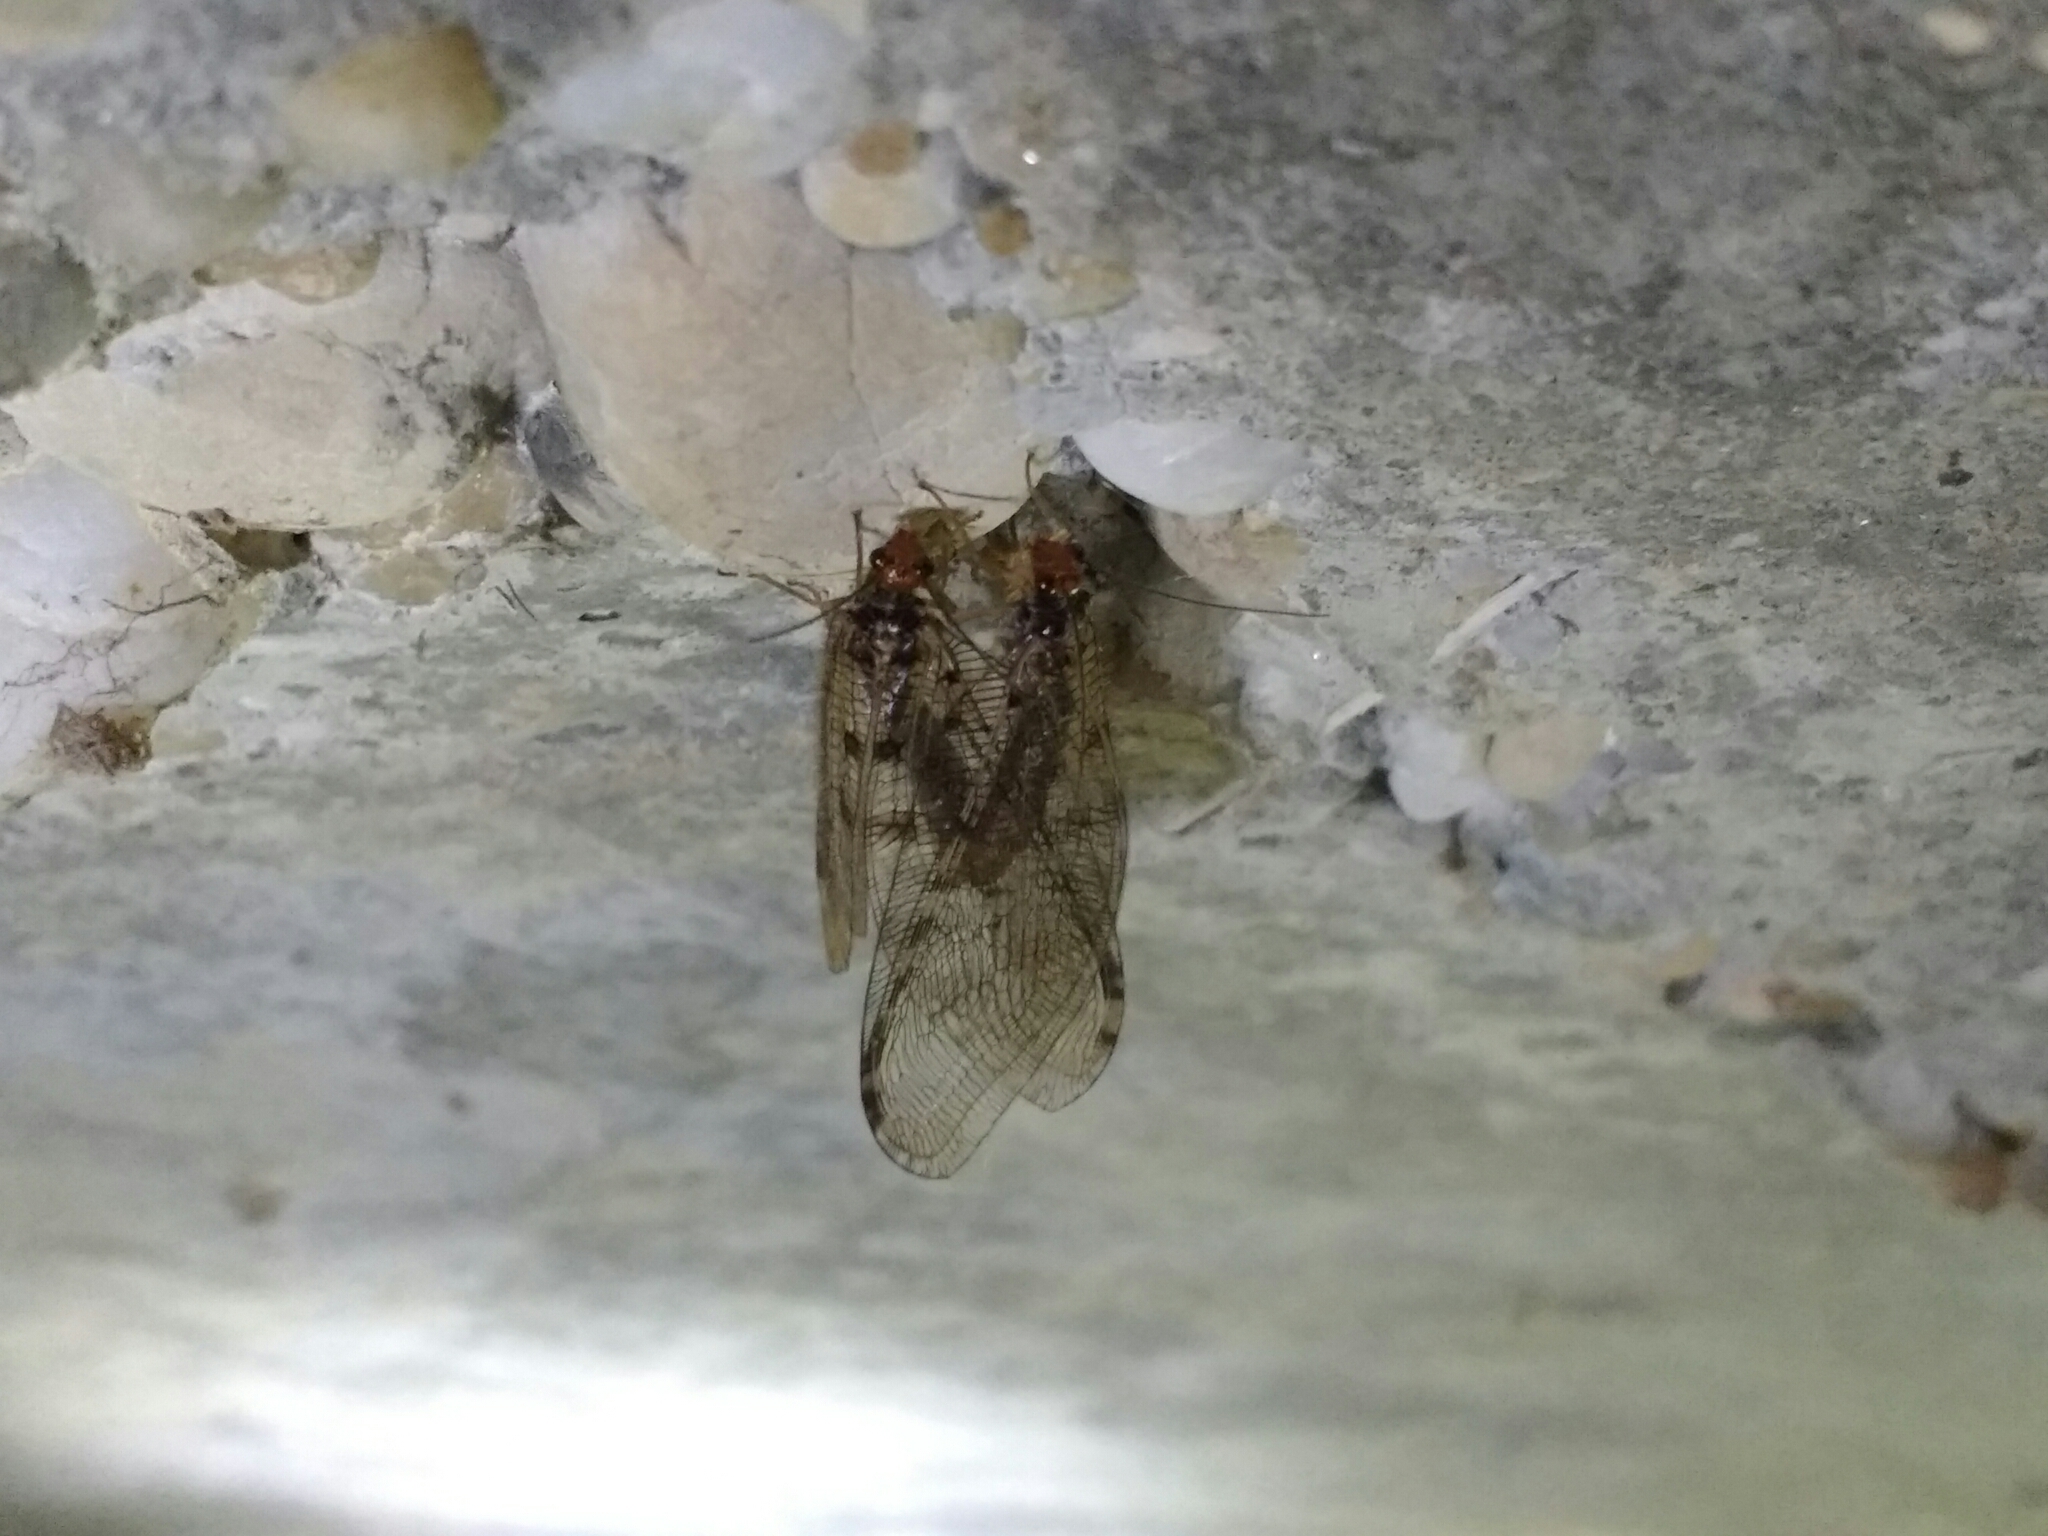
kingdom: Animalia
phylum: Arthropoda
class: Insecta
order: Neuroptera
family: Osmylidae
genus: Osmylus
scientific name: Osmylus fulvicephalus
